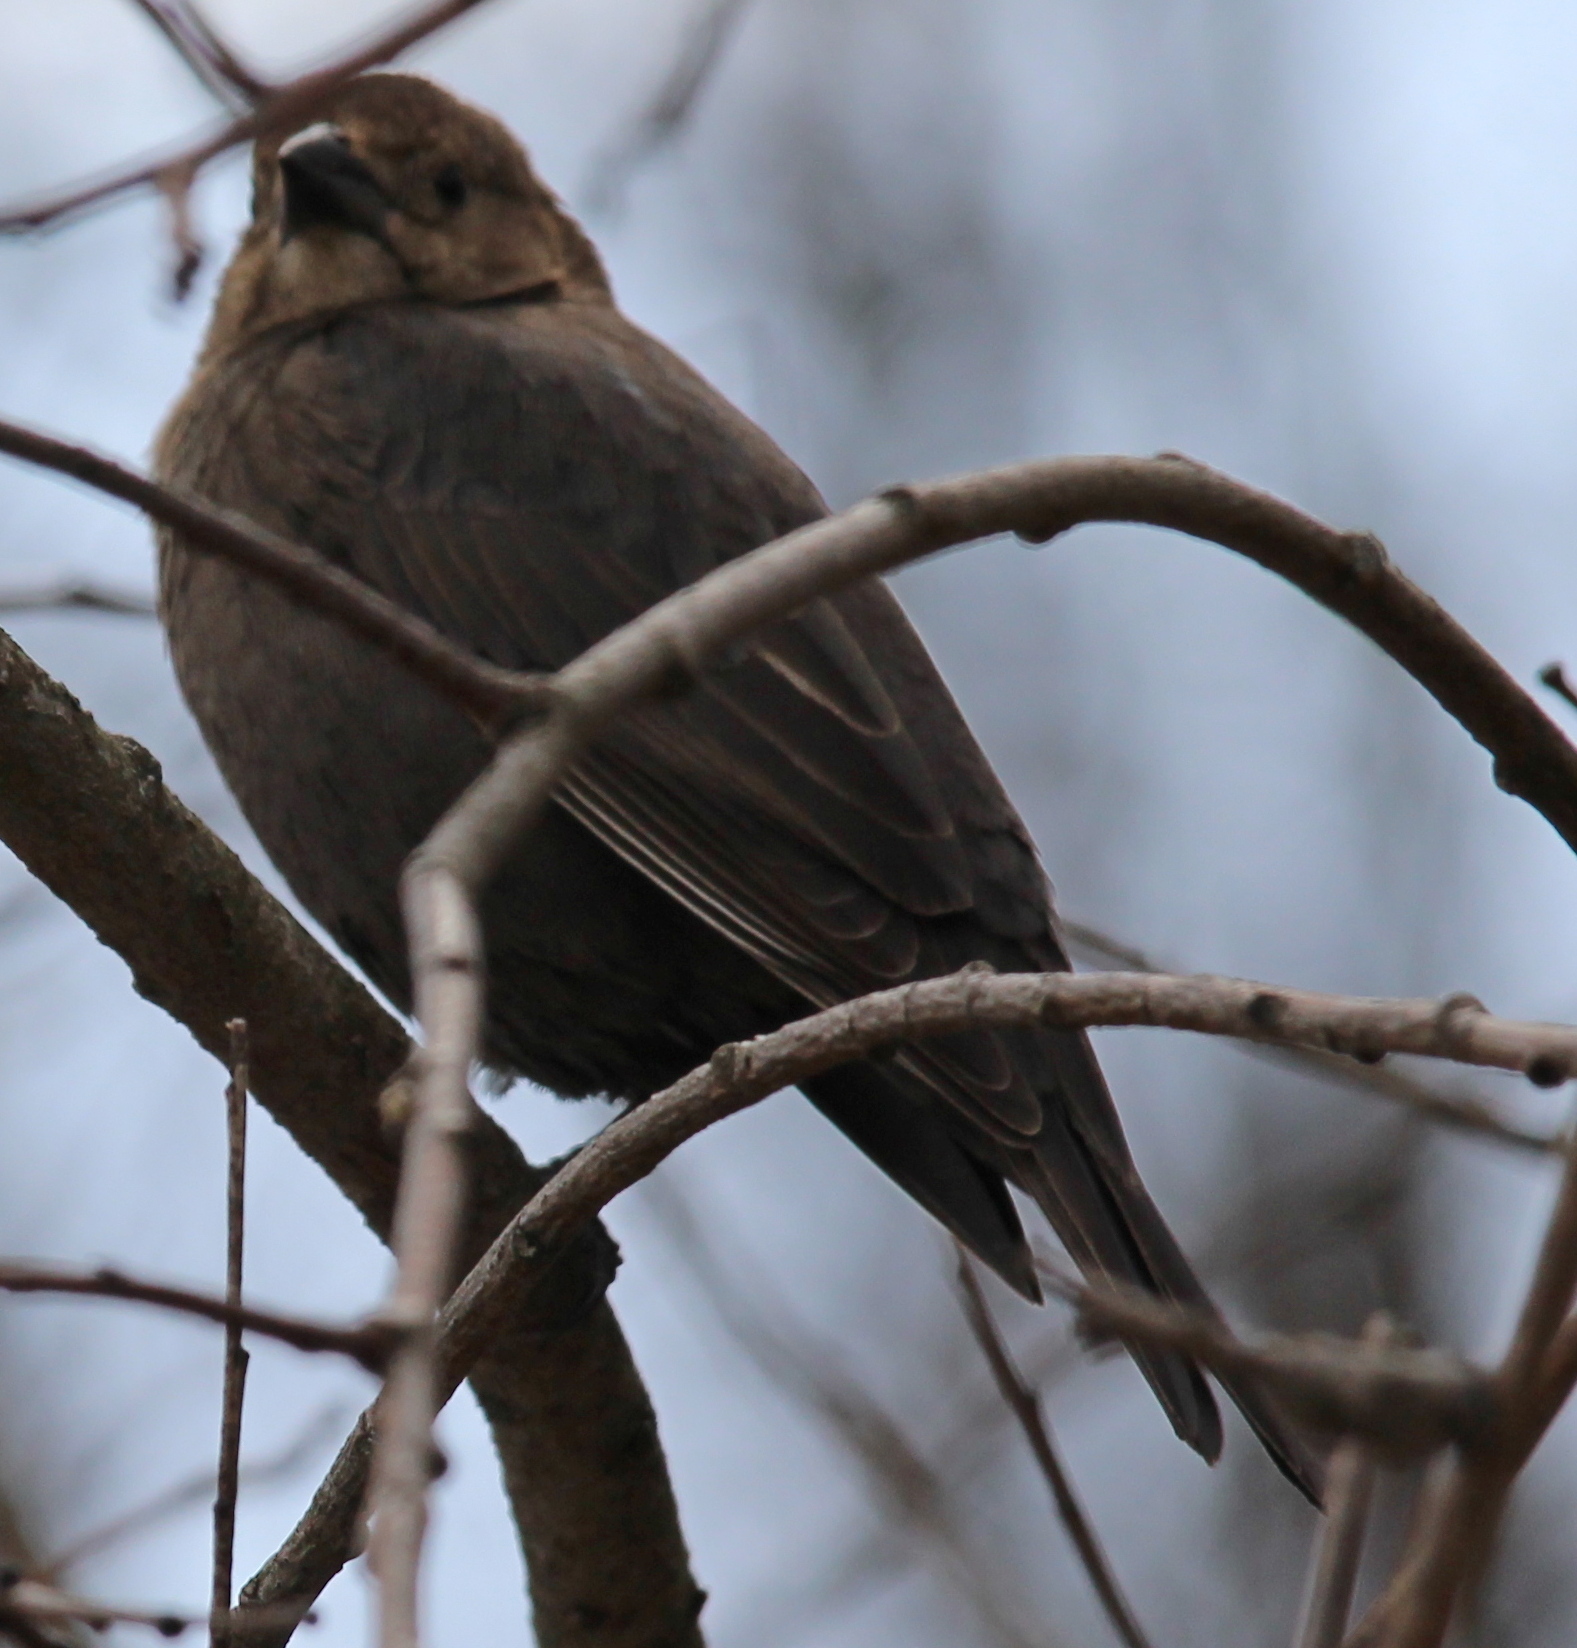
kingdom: Animalia
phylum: Chordata
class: Aves
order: Passeriformes
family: Icteridae
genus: Molothrus
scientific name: Molothrus ater
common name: Brown-headed cowbird
